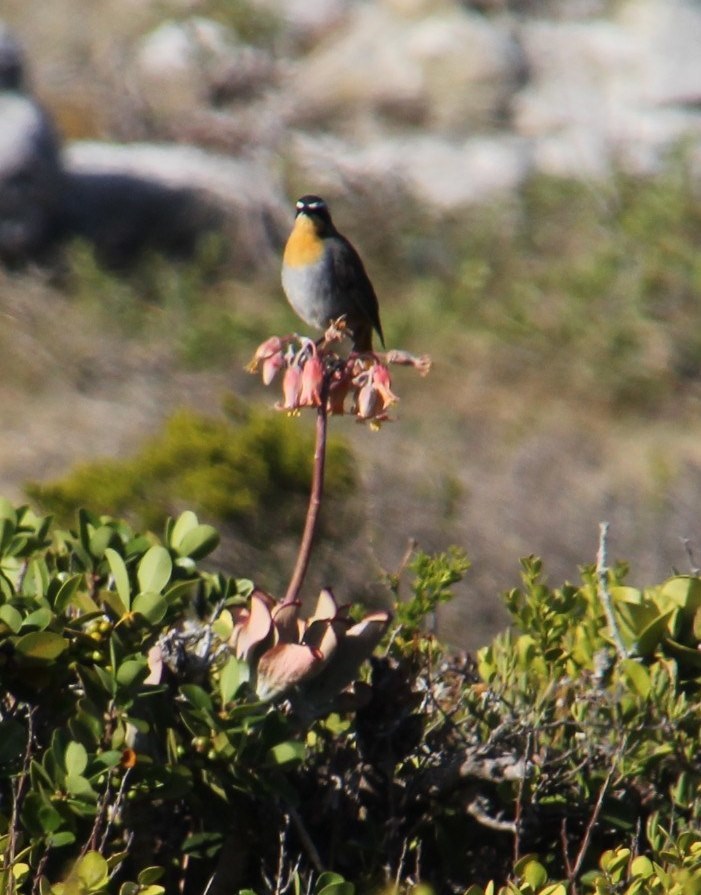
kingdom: Animalia
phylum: Chordata
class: Aves
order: Passeriformes
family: Muscicapidae
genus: Cossypha
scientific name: Cossypha caffra
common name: Cape robin-chat
